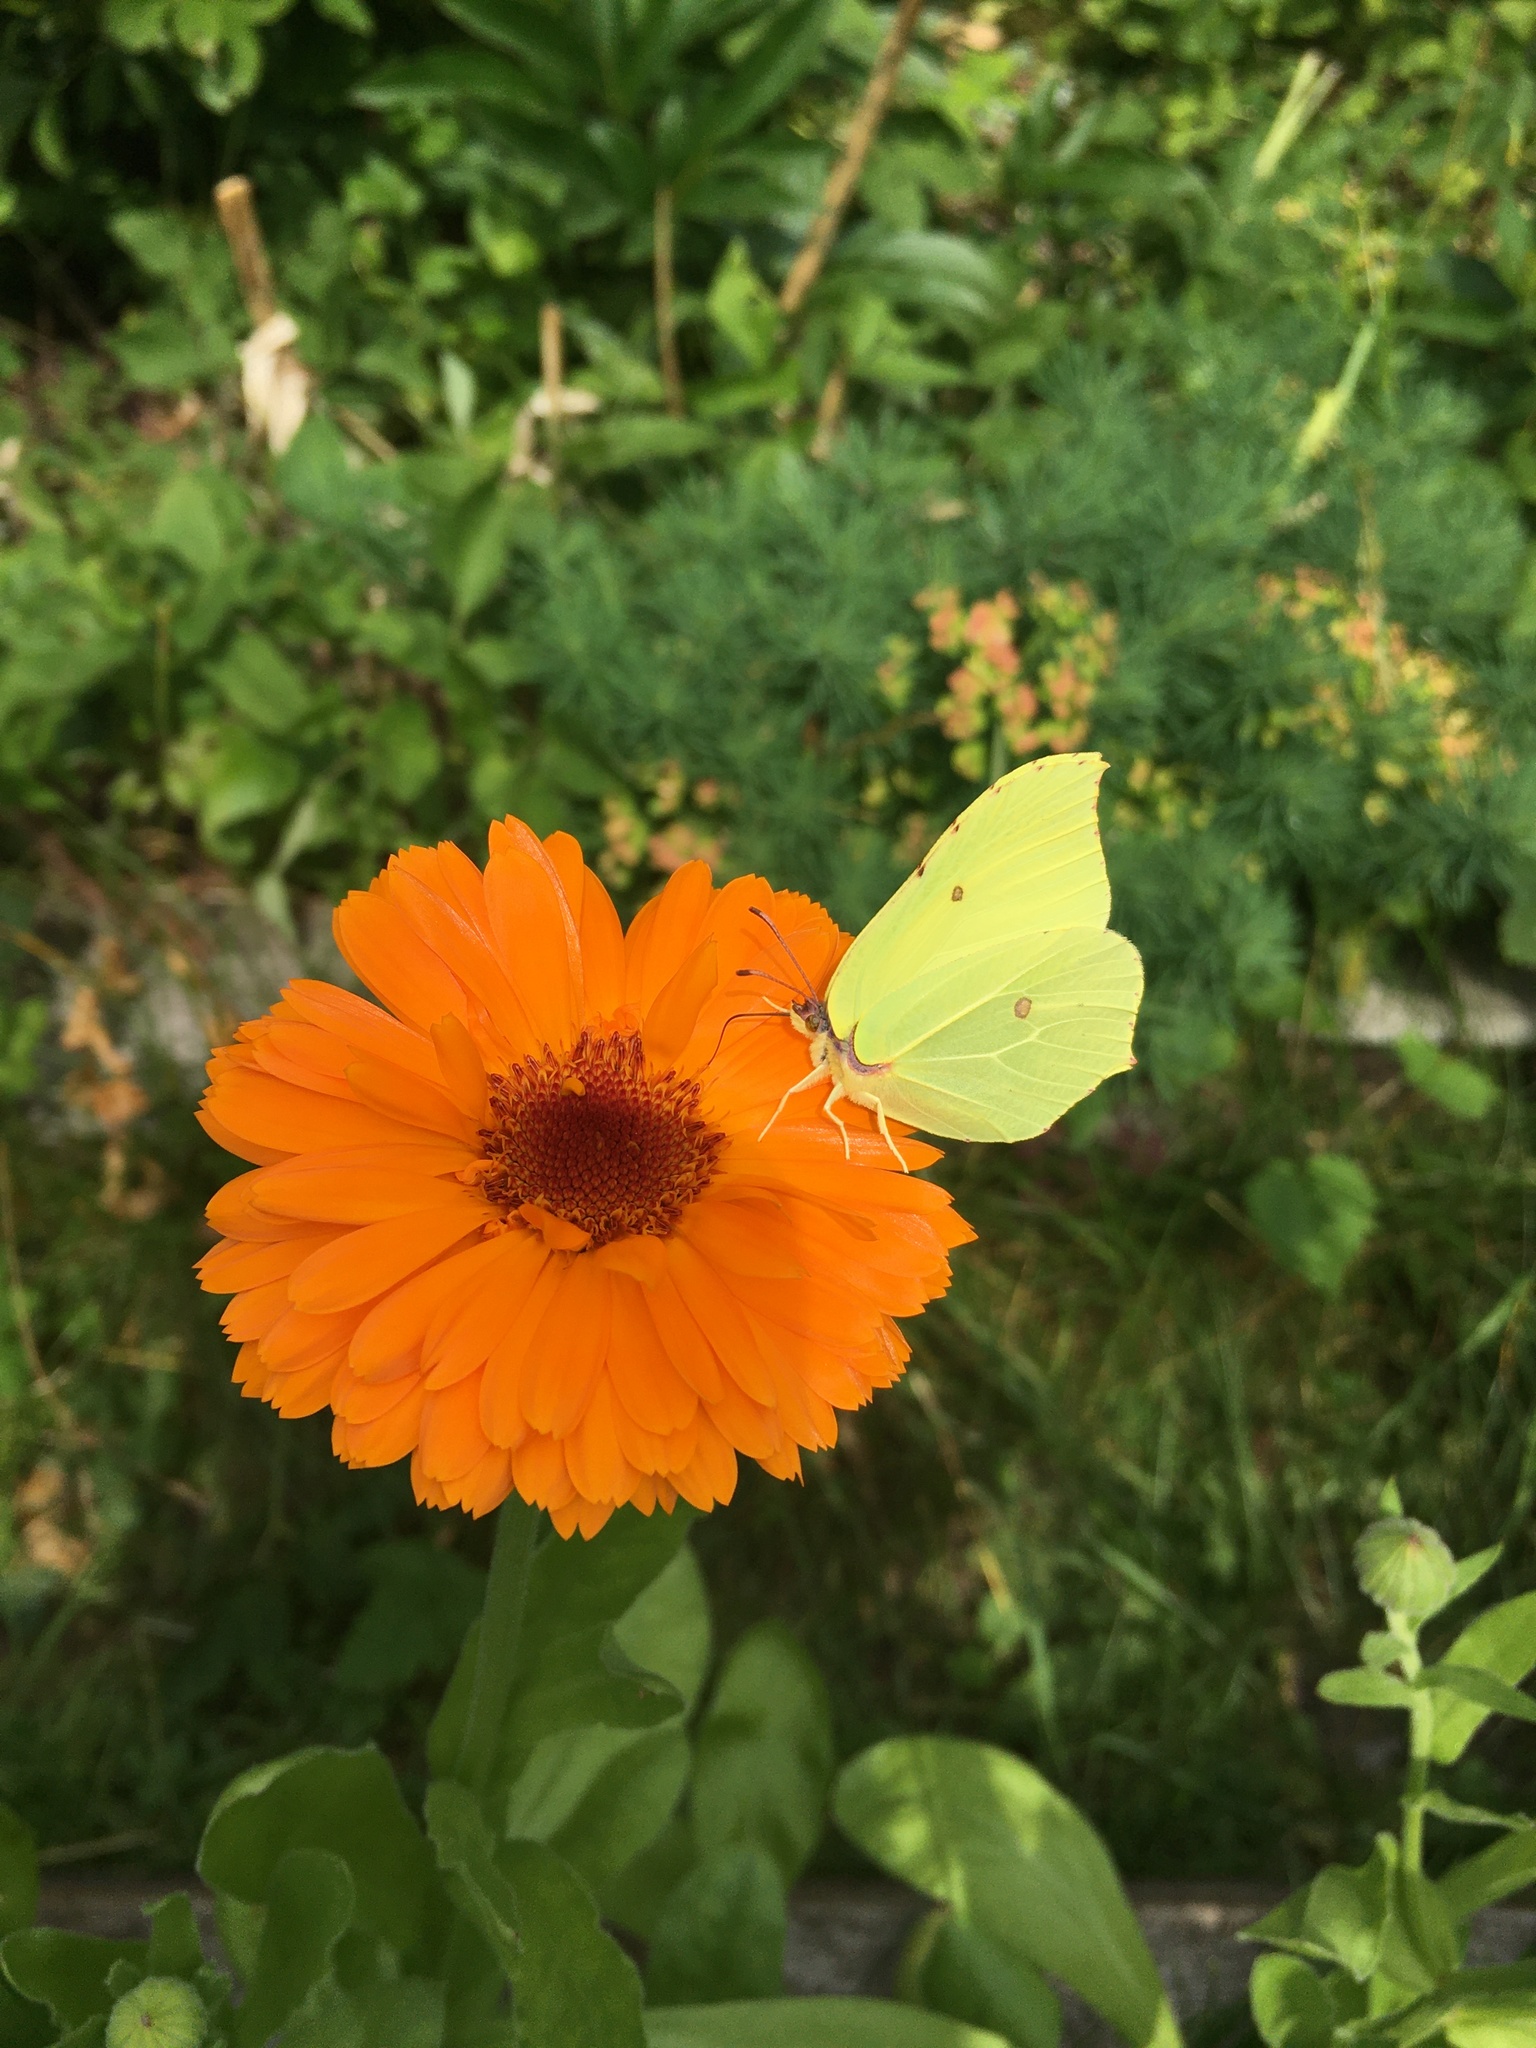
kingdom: Animalia
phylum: Arthropoda
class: Insecta
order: Lepidoptera
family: Pieridae
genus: Gonepteryx
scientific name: Gonepteryx rhamni
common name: Brimstone
